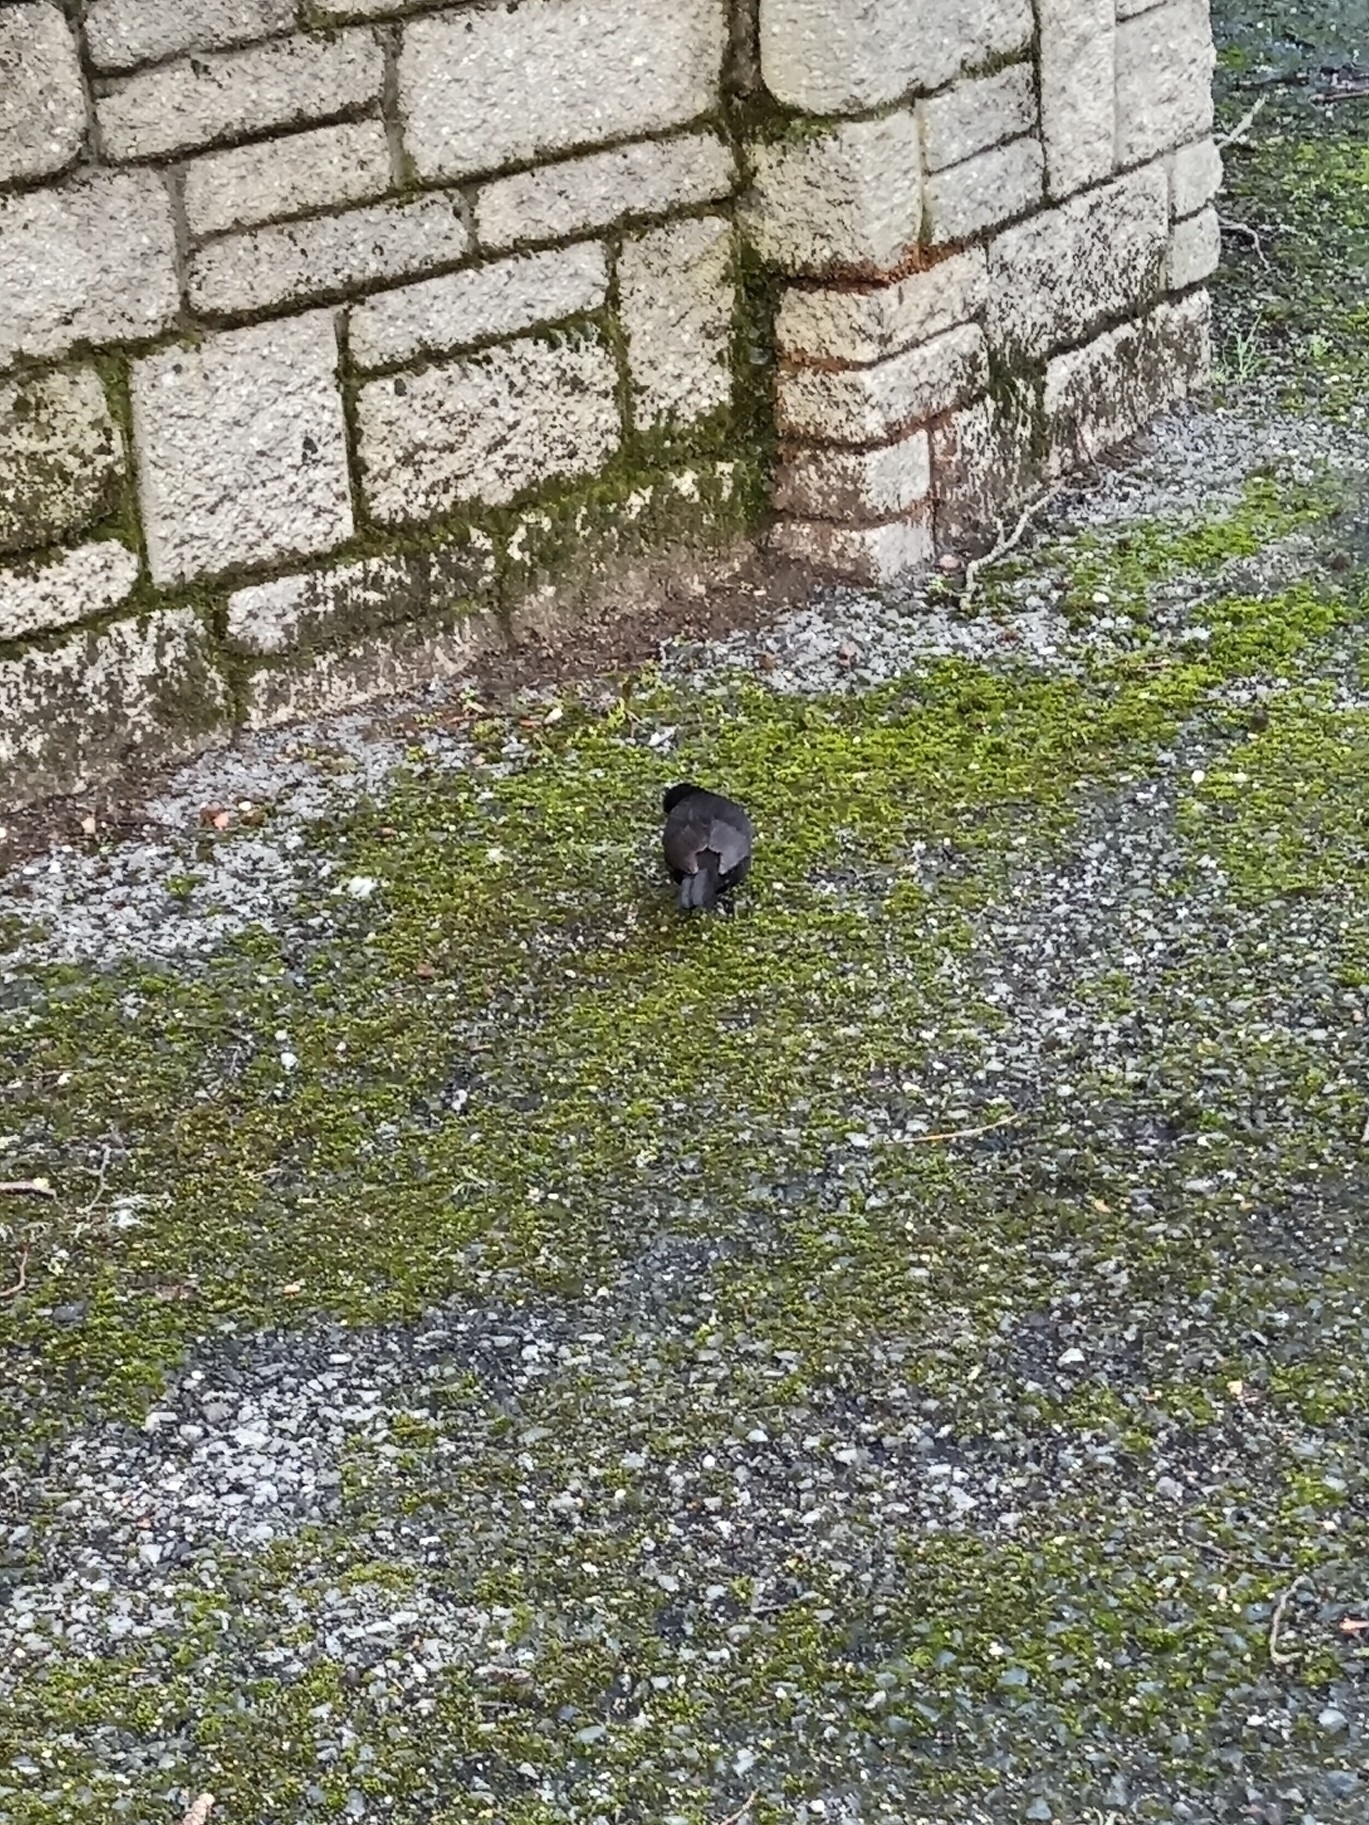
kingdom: Animalia
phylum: Chordata
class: Aves
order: Passeriformes
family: Turdidae
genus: Turdus
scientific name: Turdus merula
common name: Common blackbird
